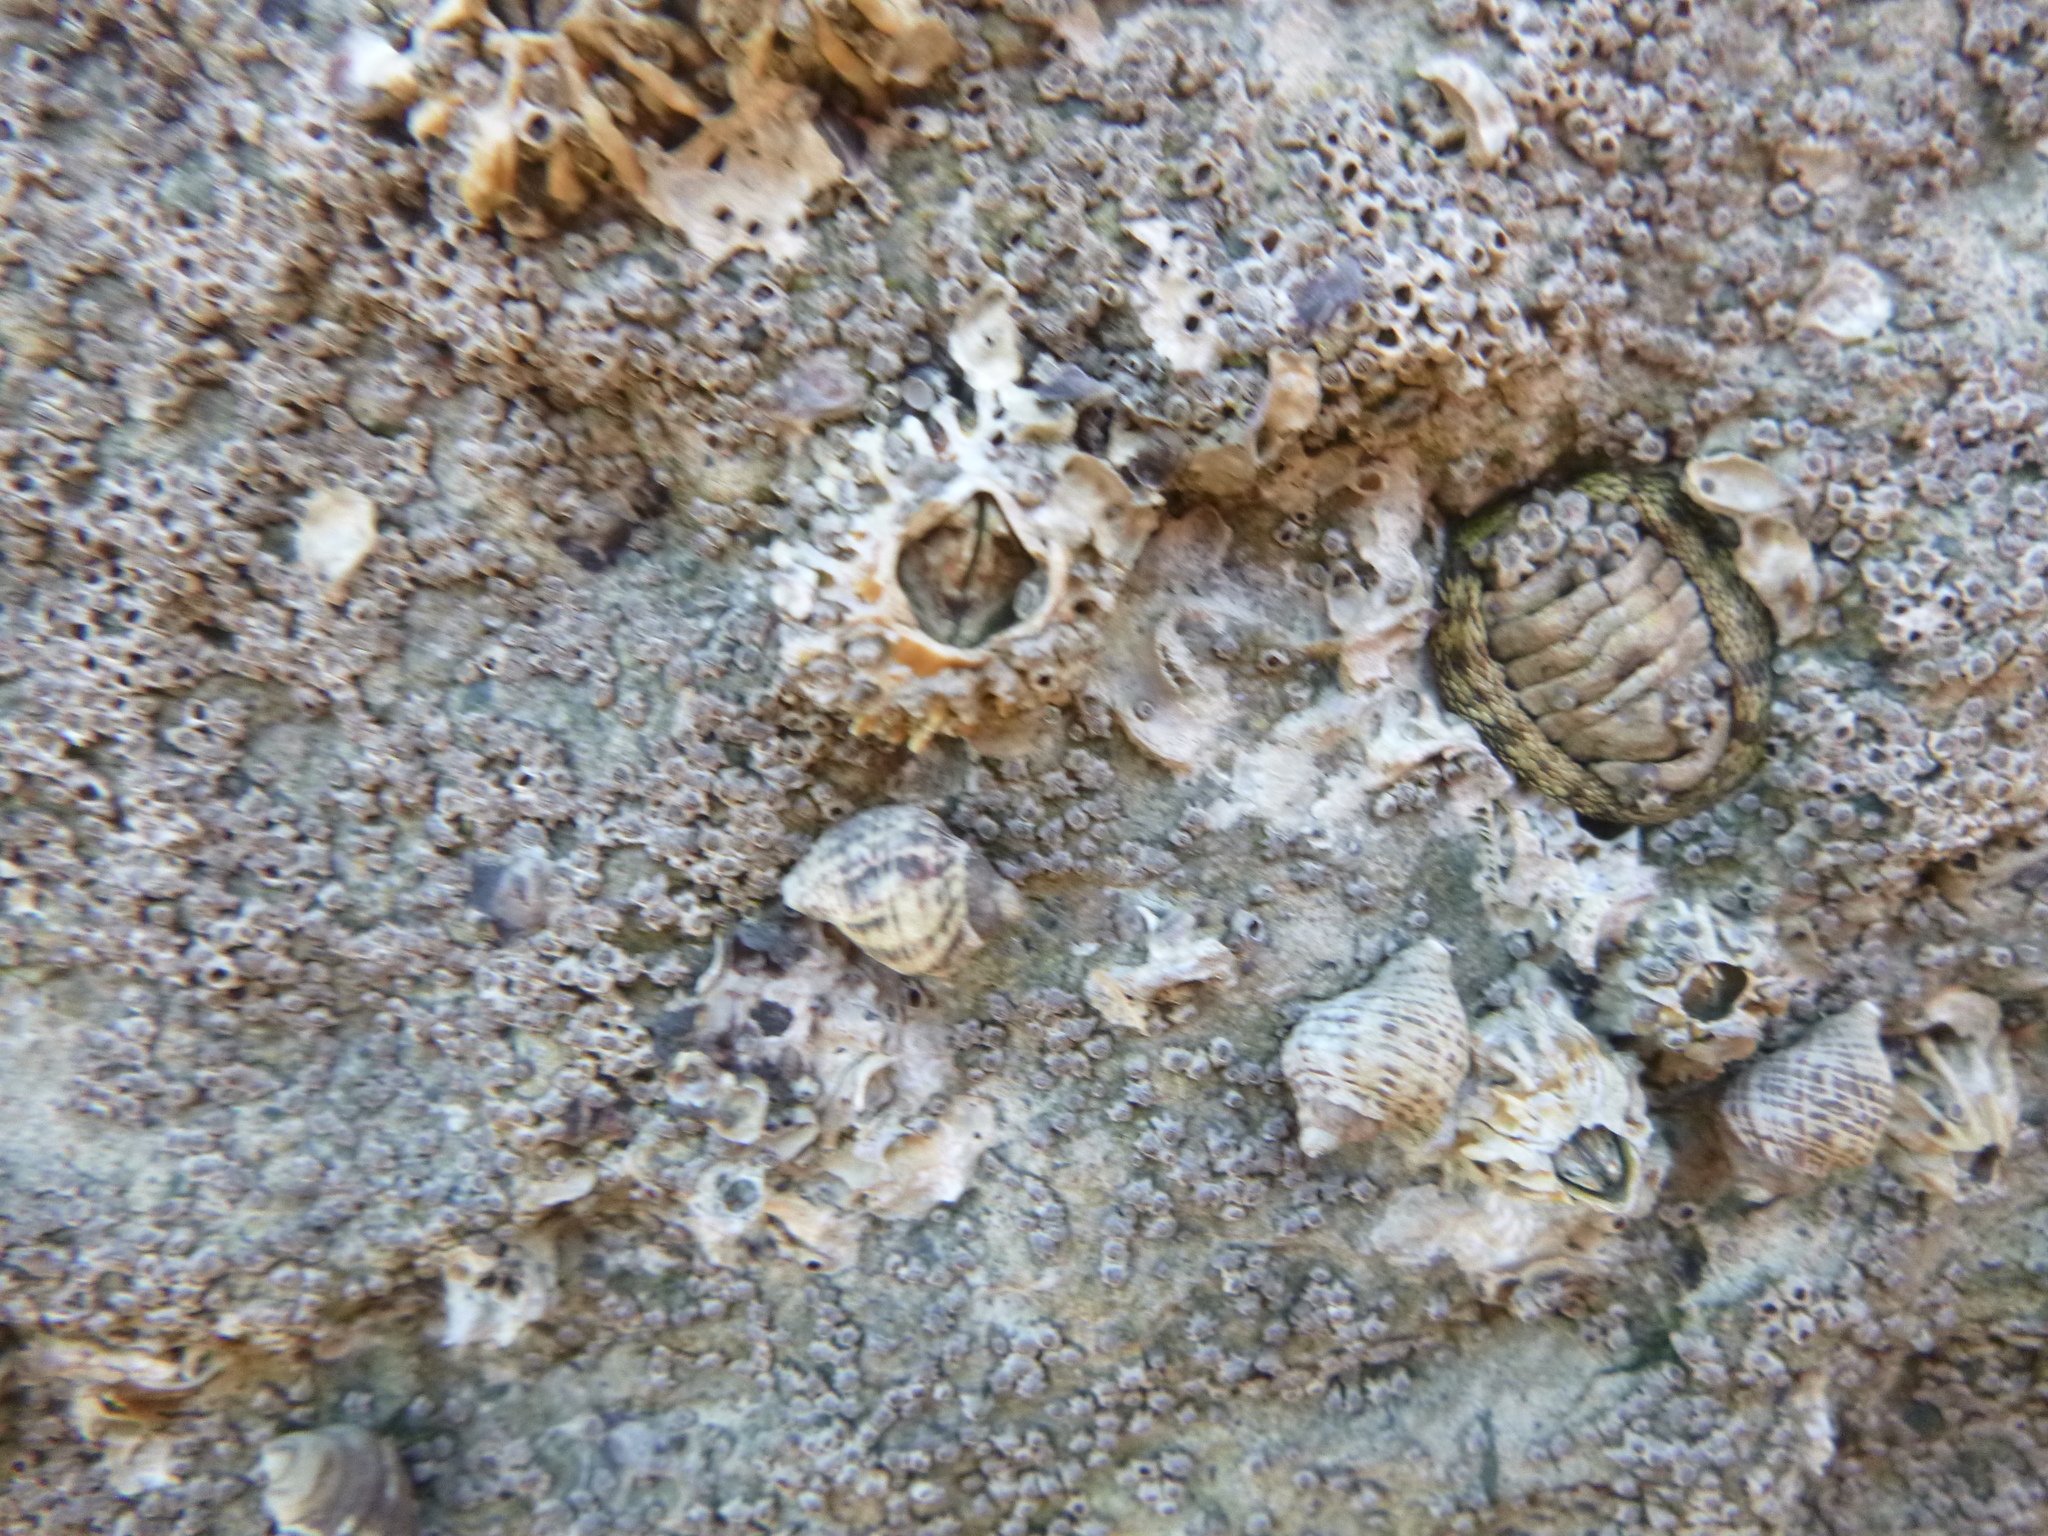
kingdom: Animalia
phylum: Arthropoda
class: Maxillopoda
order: Sessilia
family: Tetraclitidae
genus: Epopella
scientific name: Epopella plicata
